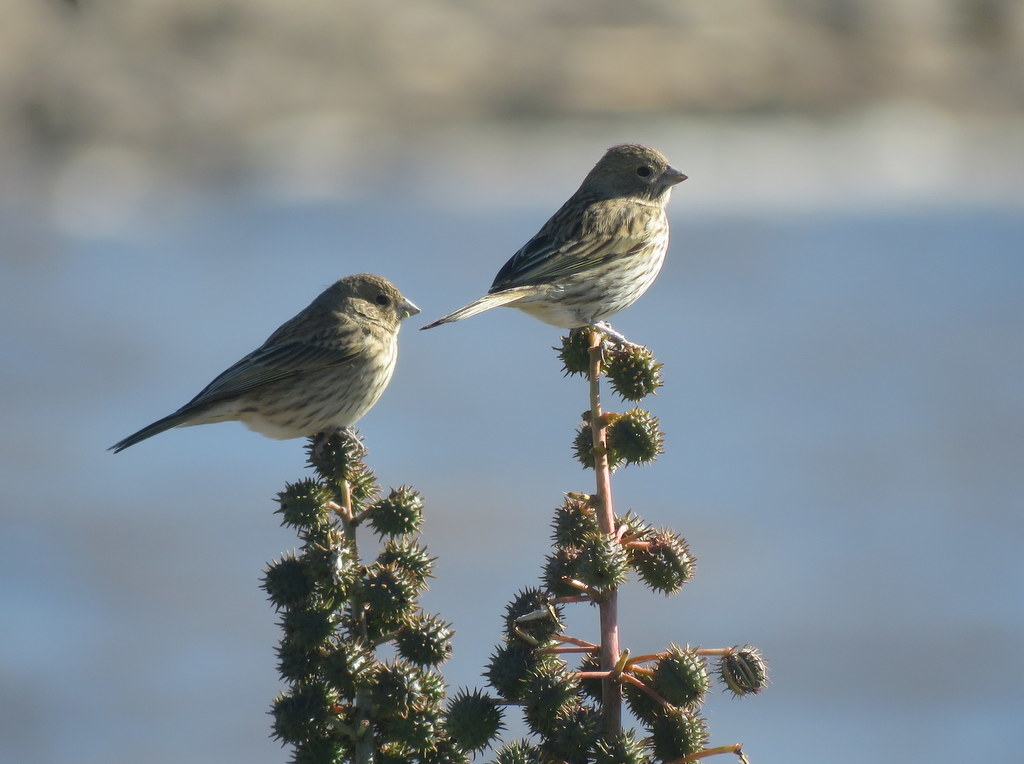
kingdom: Animalia
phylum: Chordata
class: Aves
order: Passeriformes
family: Thraupidae
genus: Sicalis
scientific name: Sicalis flaveola
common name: Saffron finch
